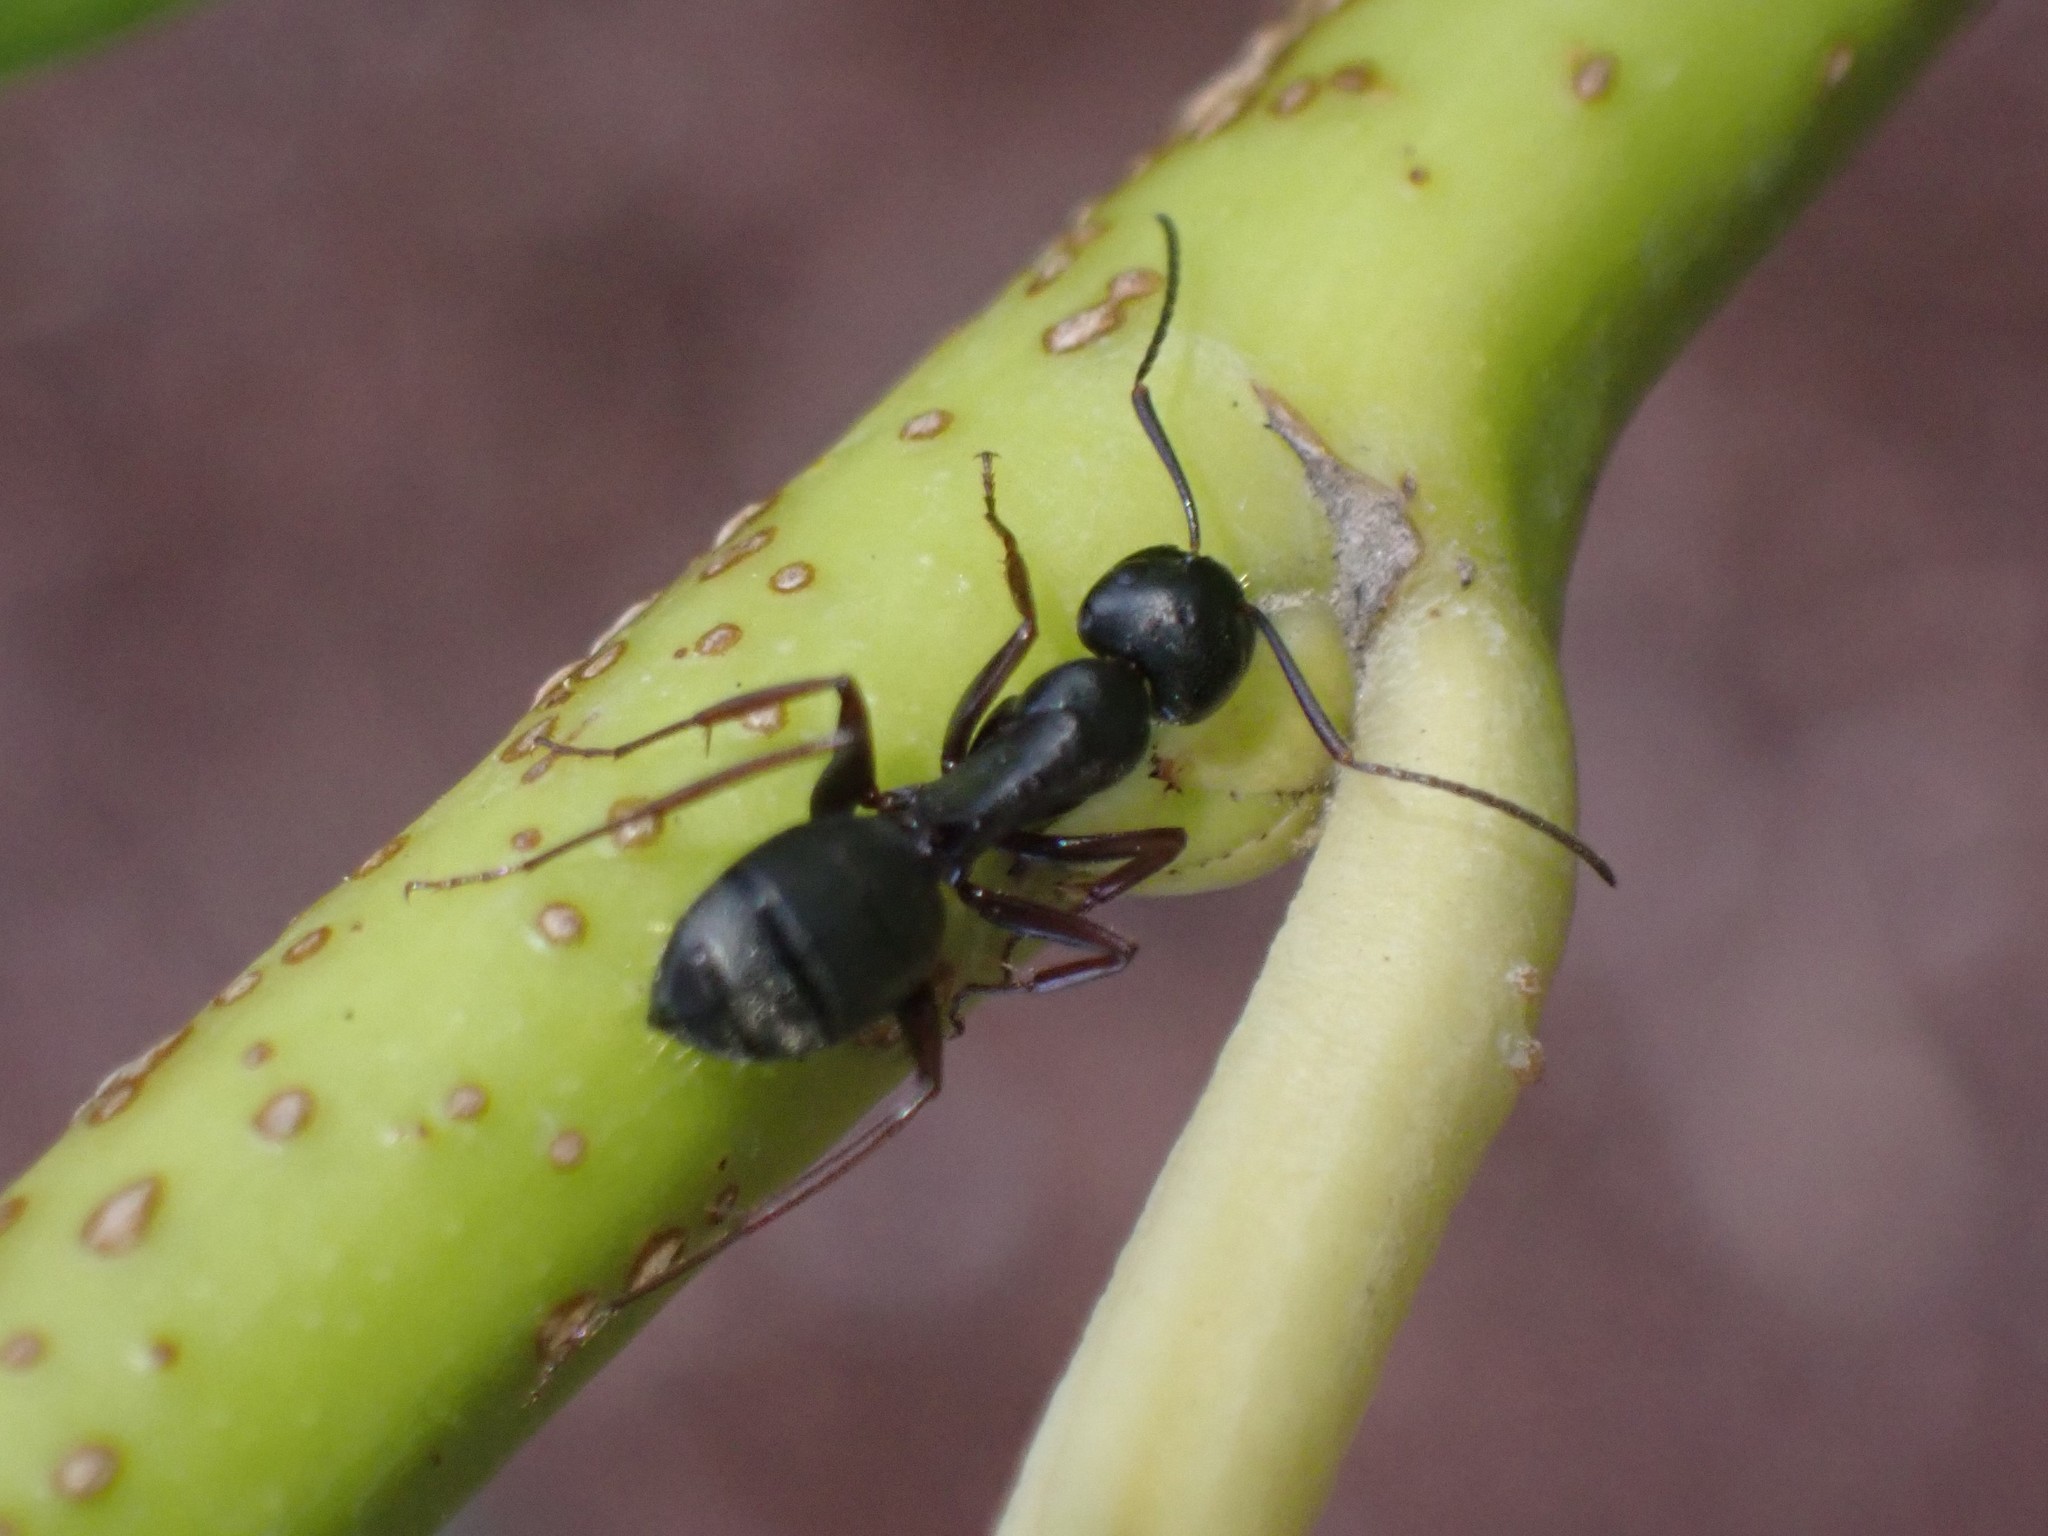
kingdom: Animalia
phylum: Arthropoda
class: Insecta
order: Hymenoptera
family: Formicidae
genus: Camponotus
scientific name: Camponotus modoc
